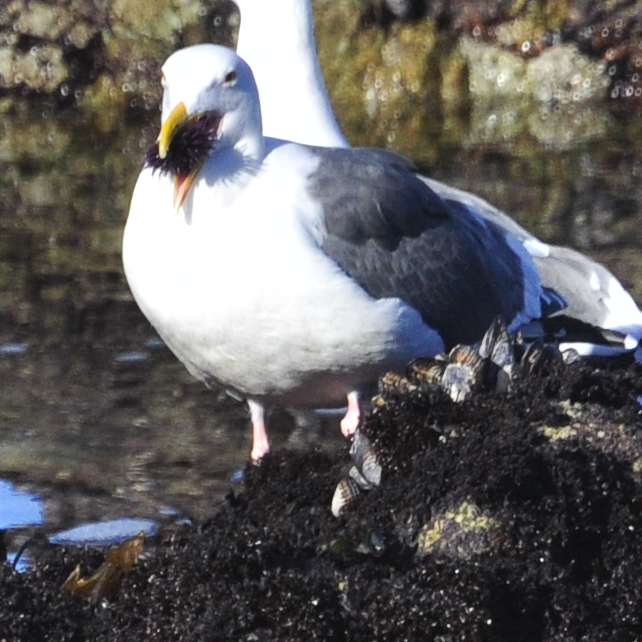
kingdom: Animalia
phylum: Chordata
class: Aves
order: Charadriiformes
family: Laridae
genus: Larus
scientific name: Larus occidentalis
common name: Western gull
